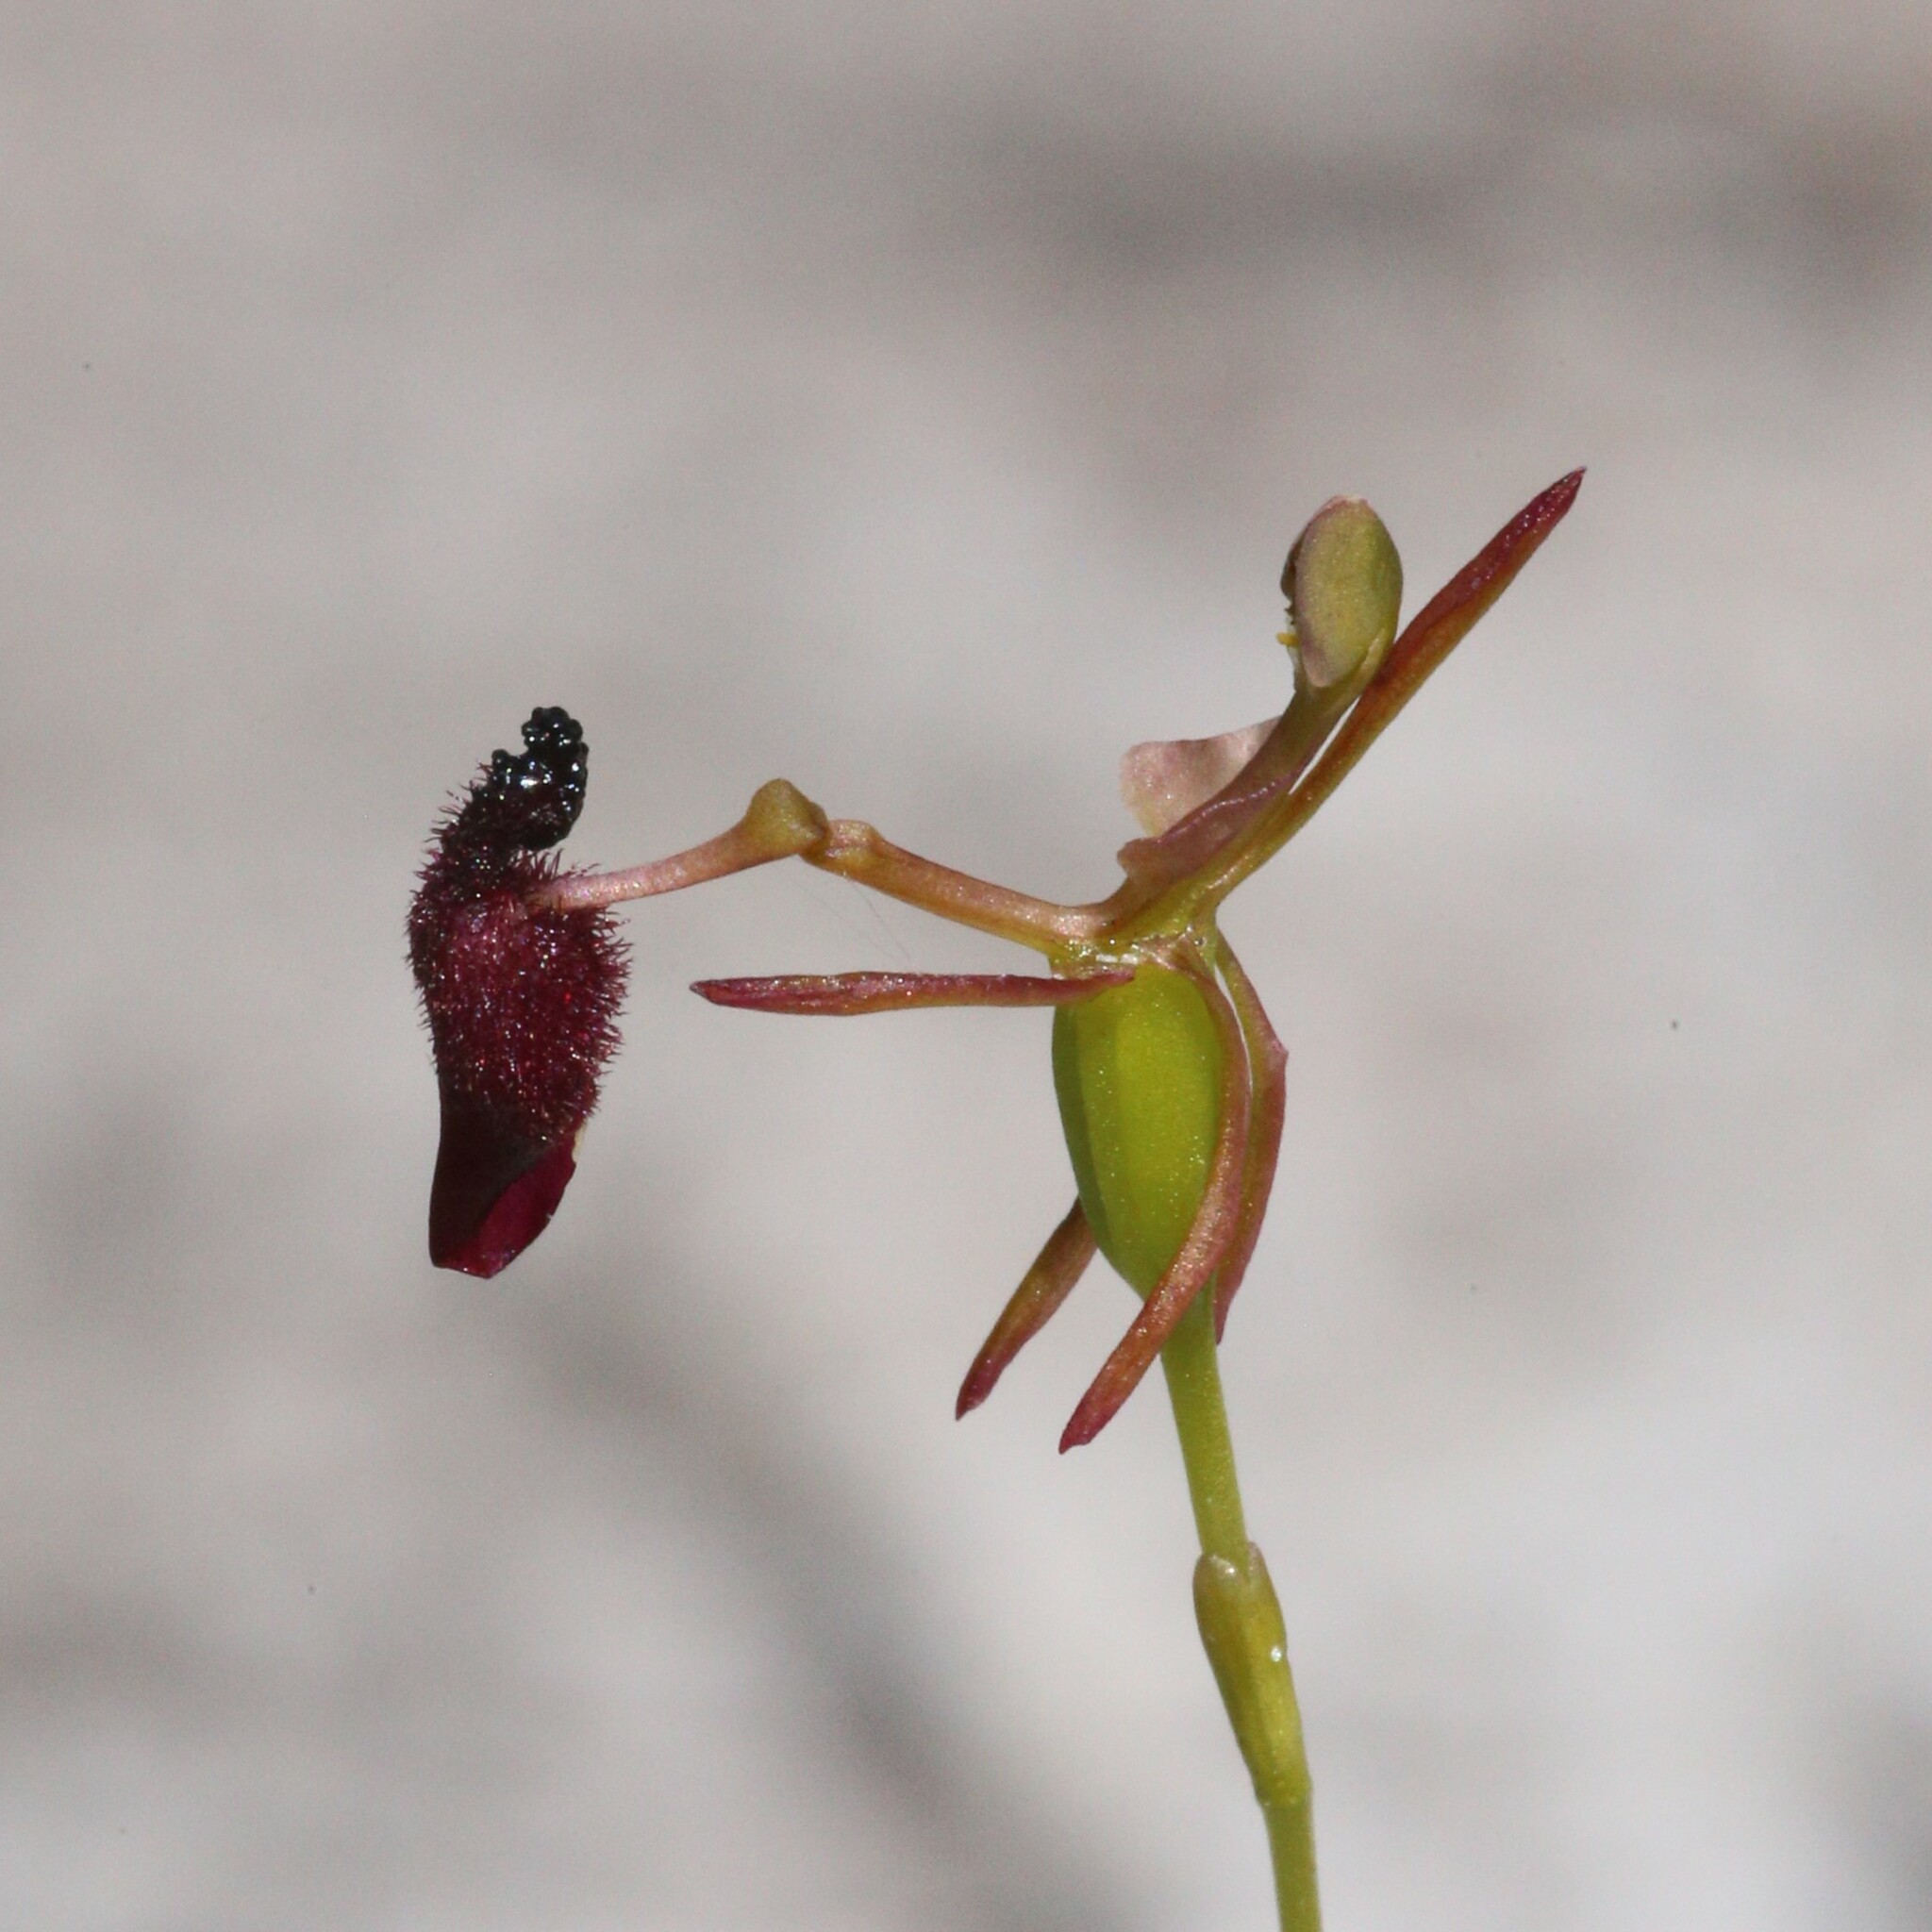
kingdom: Plantae
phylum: Tracheophyta
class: Liliopsida
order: Asparagales
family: Orchidaceae
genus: Drakaea
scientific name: Drakaea glyptodon
